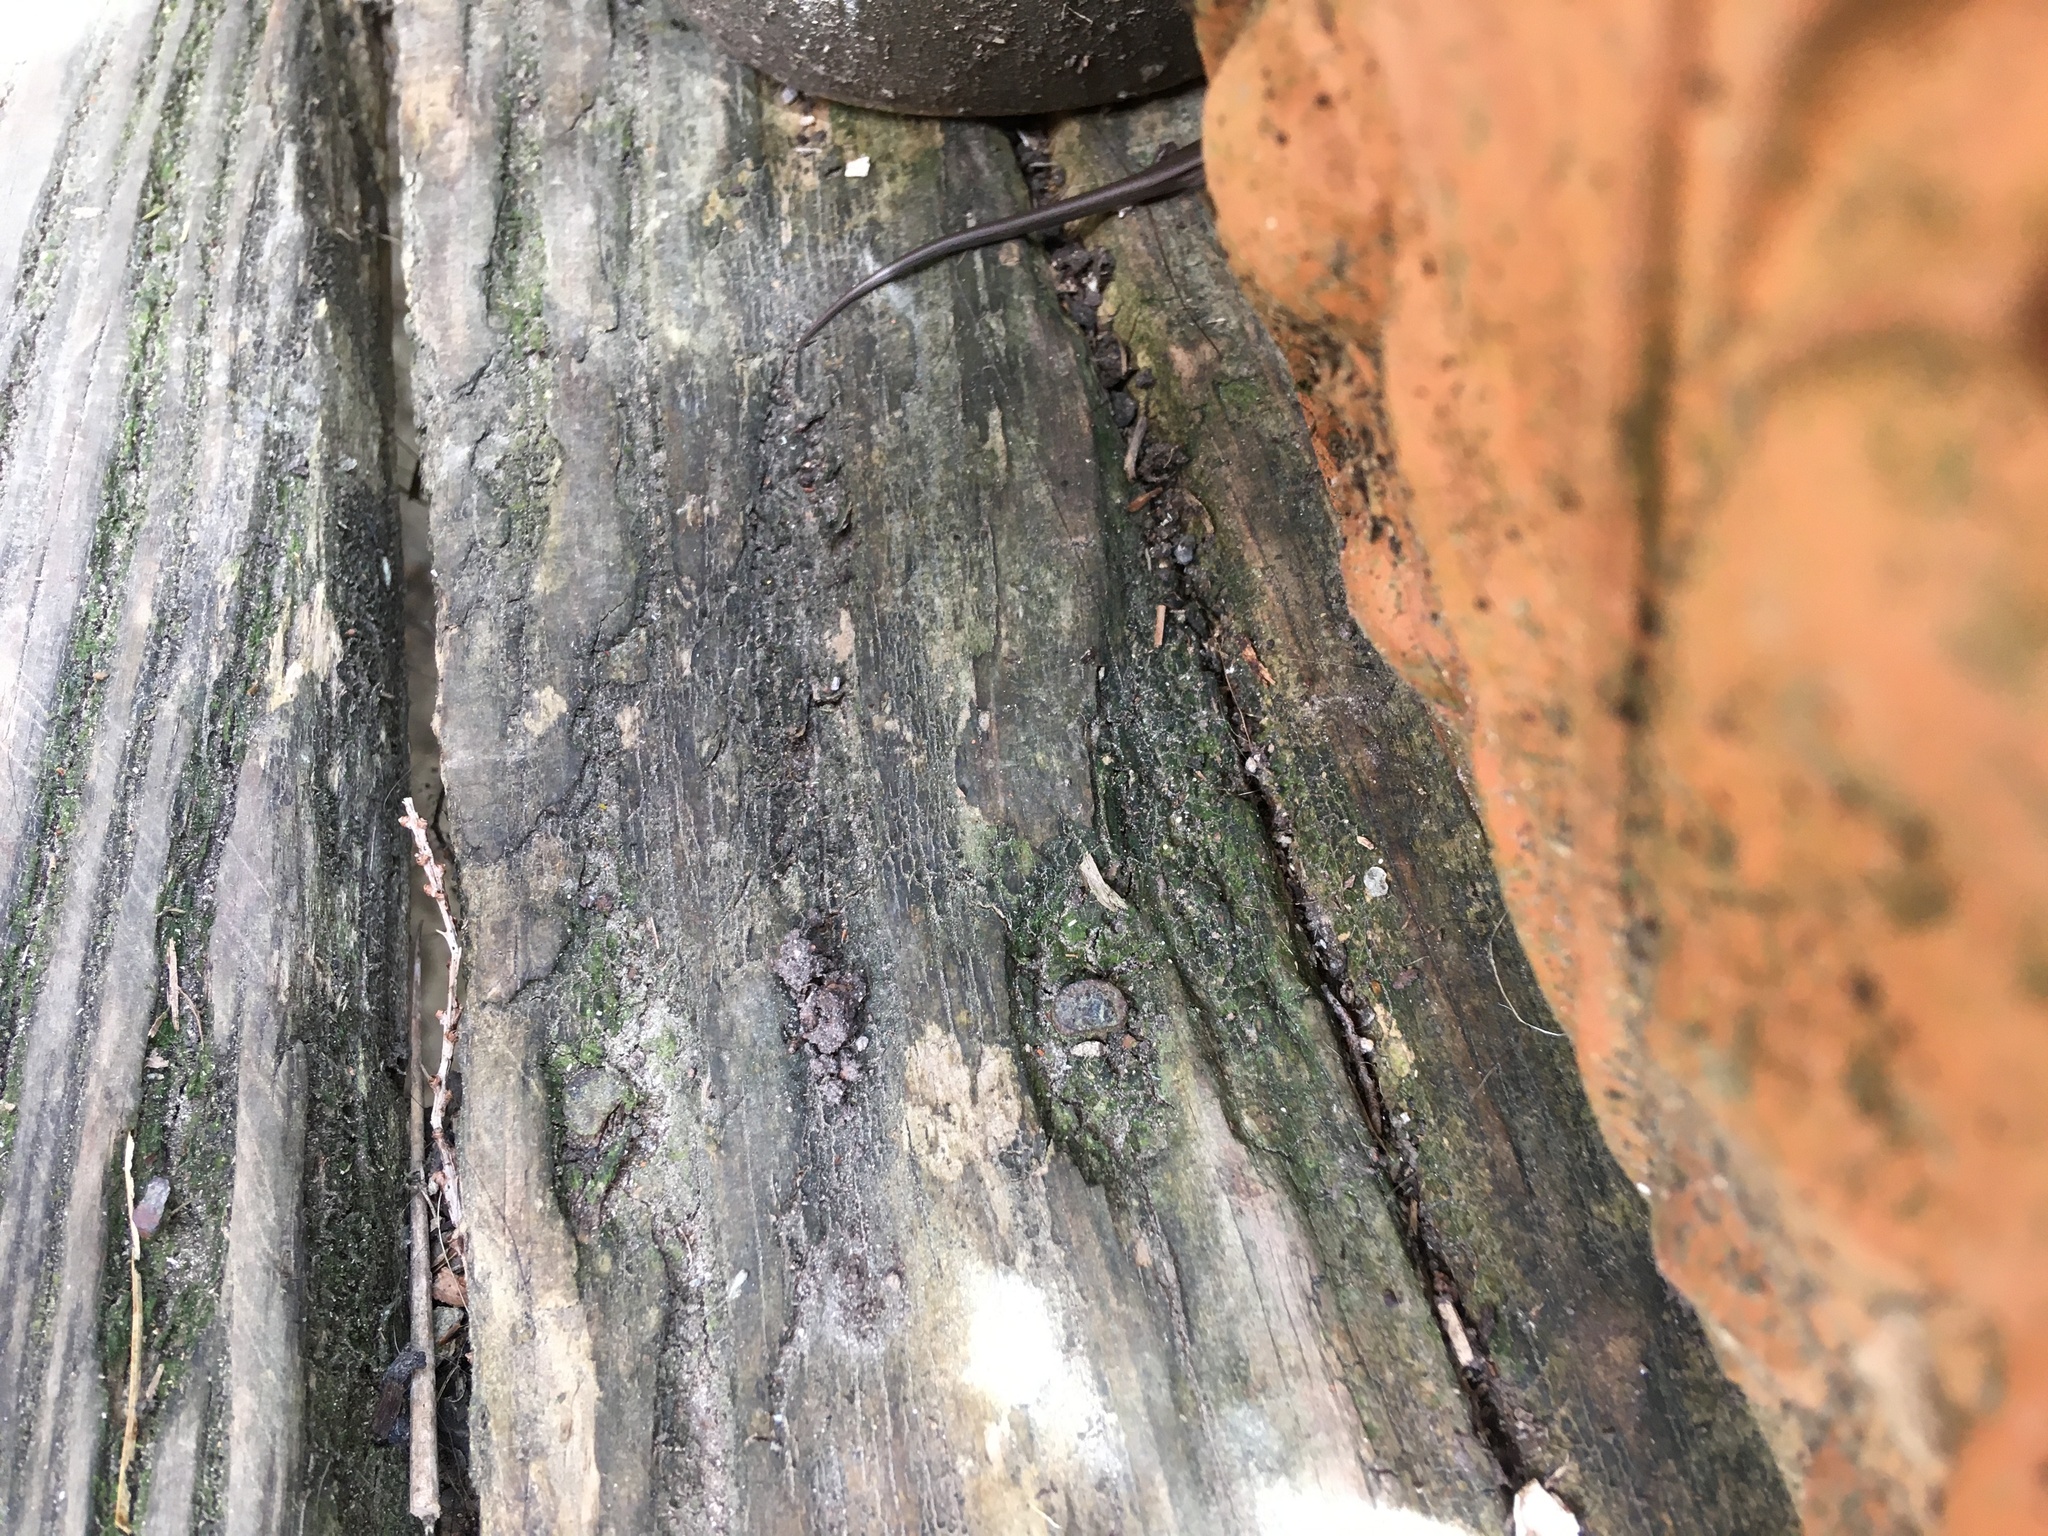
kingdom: Animalia
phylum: Chordata
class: Squamata
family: Scincidae
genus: Lampropholis
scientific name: Lampropholis delicata
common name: Plague skink
